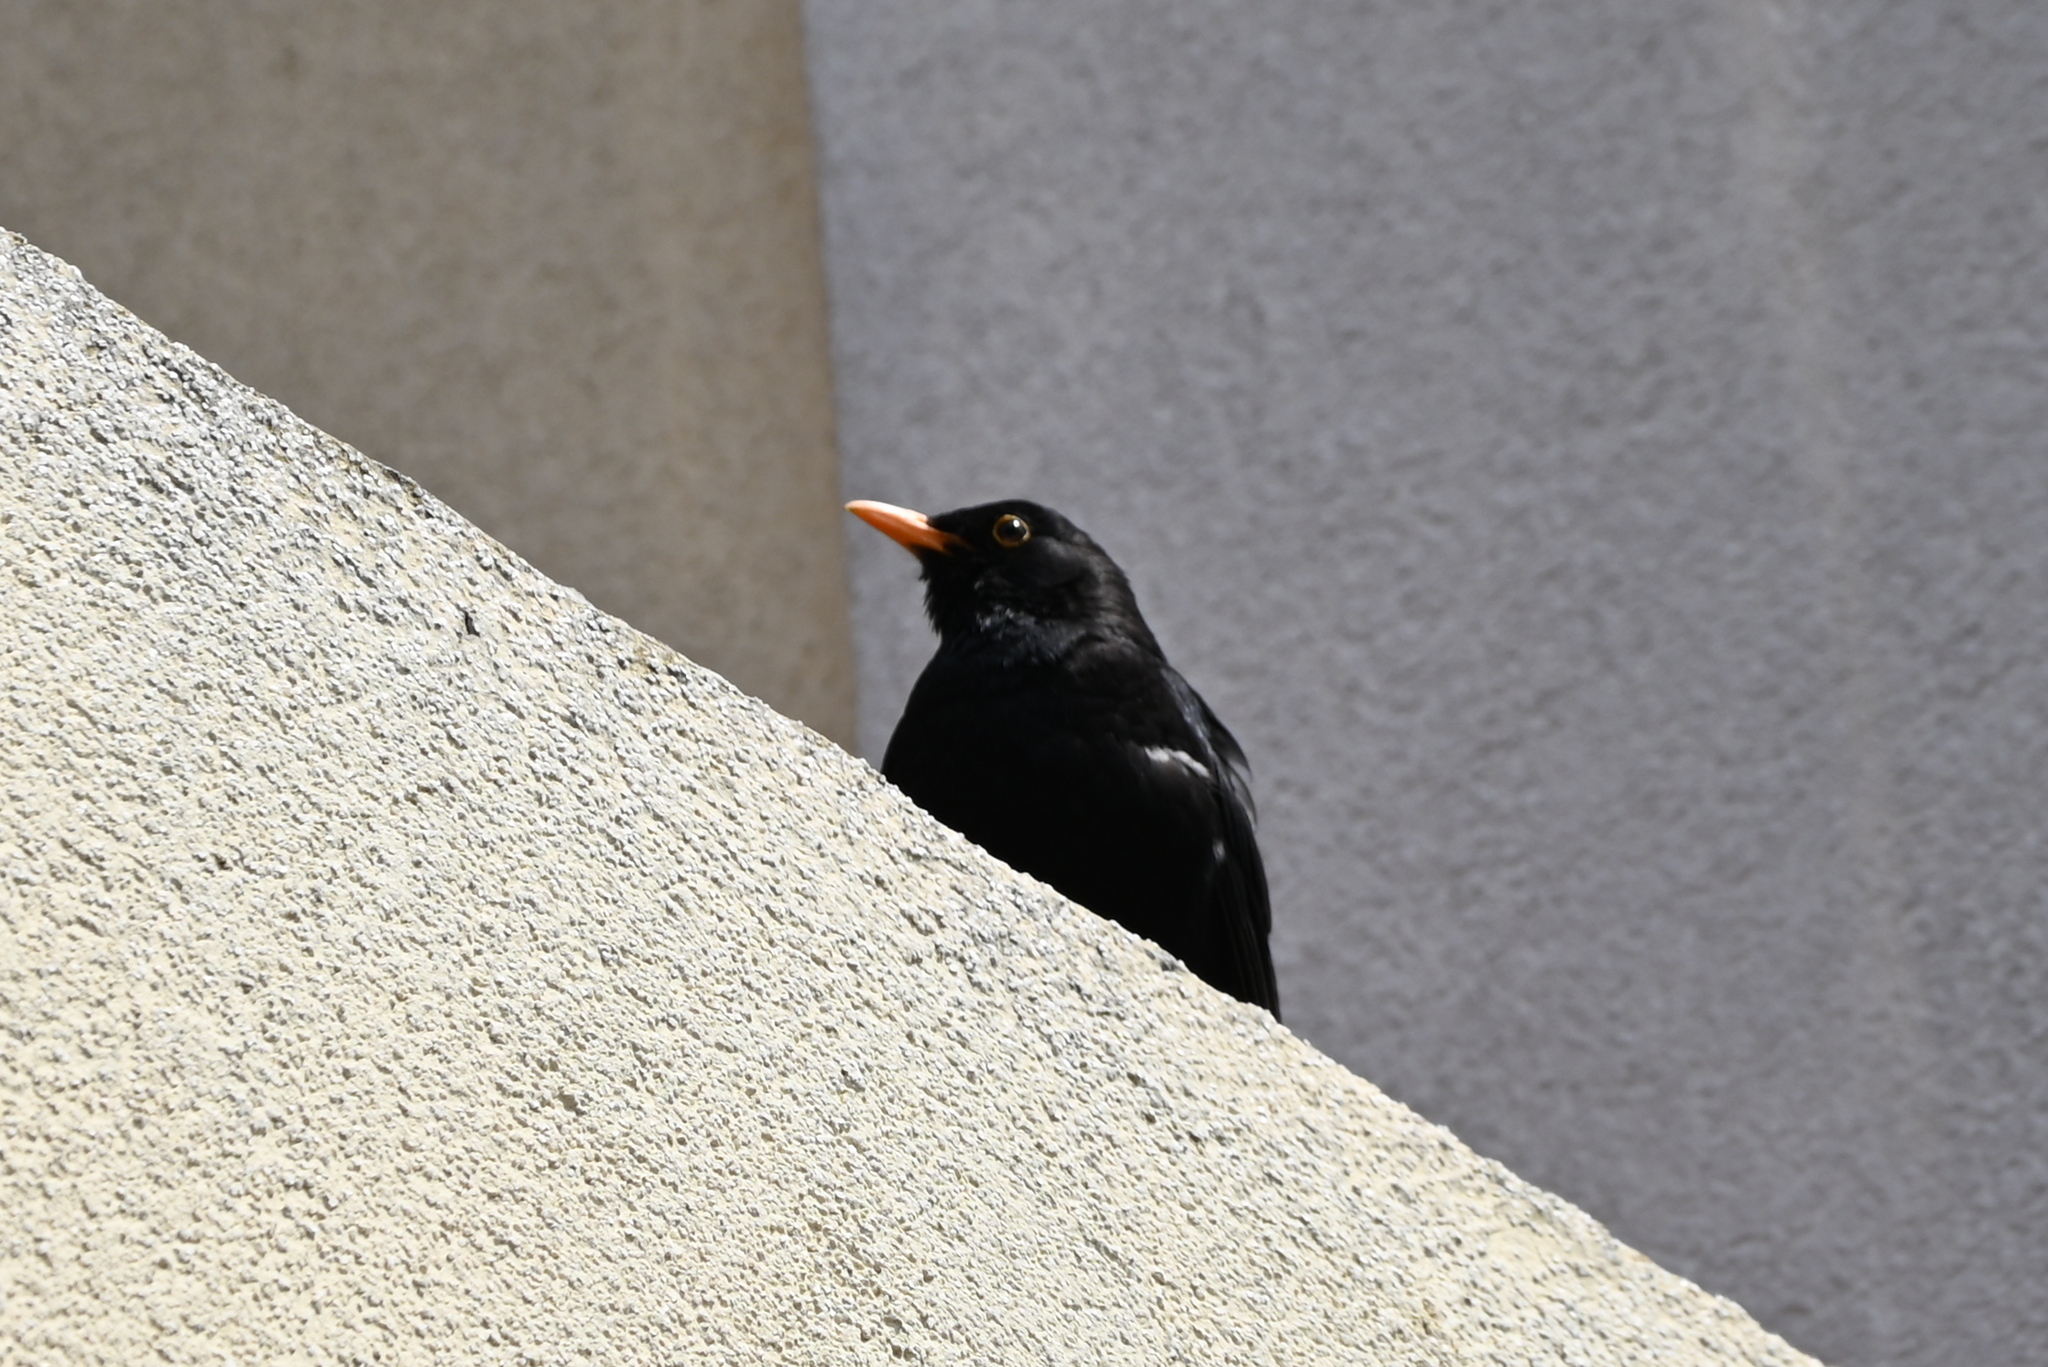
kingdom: Animalia
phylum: Chordata
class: Aves
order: Passeriformes
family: Turdidae
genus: Turdus
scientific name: Turdus merula
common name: Common blackbird
